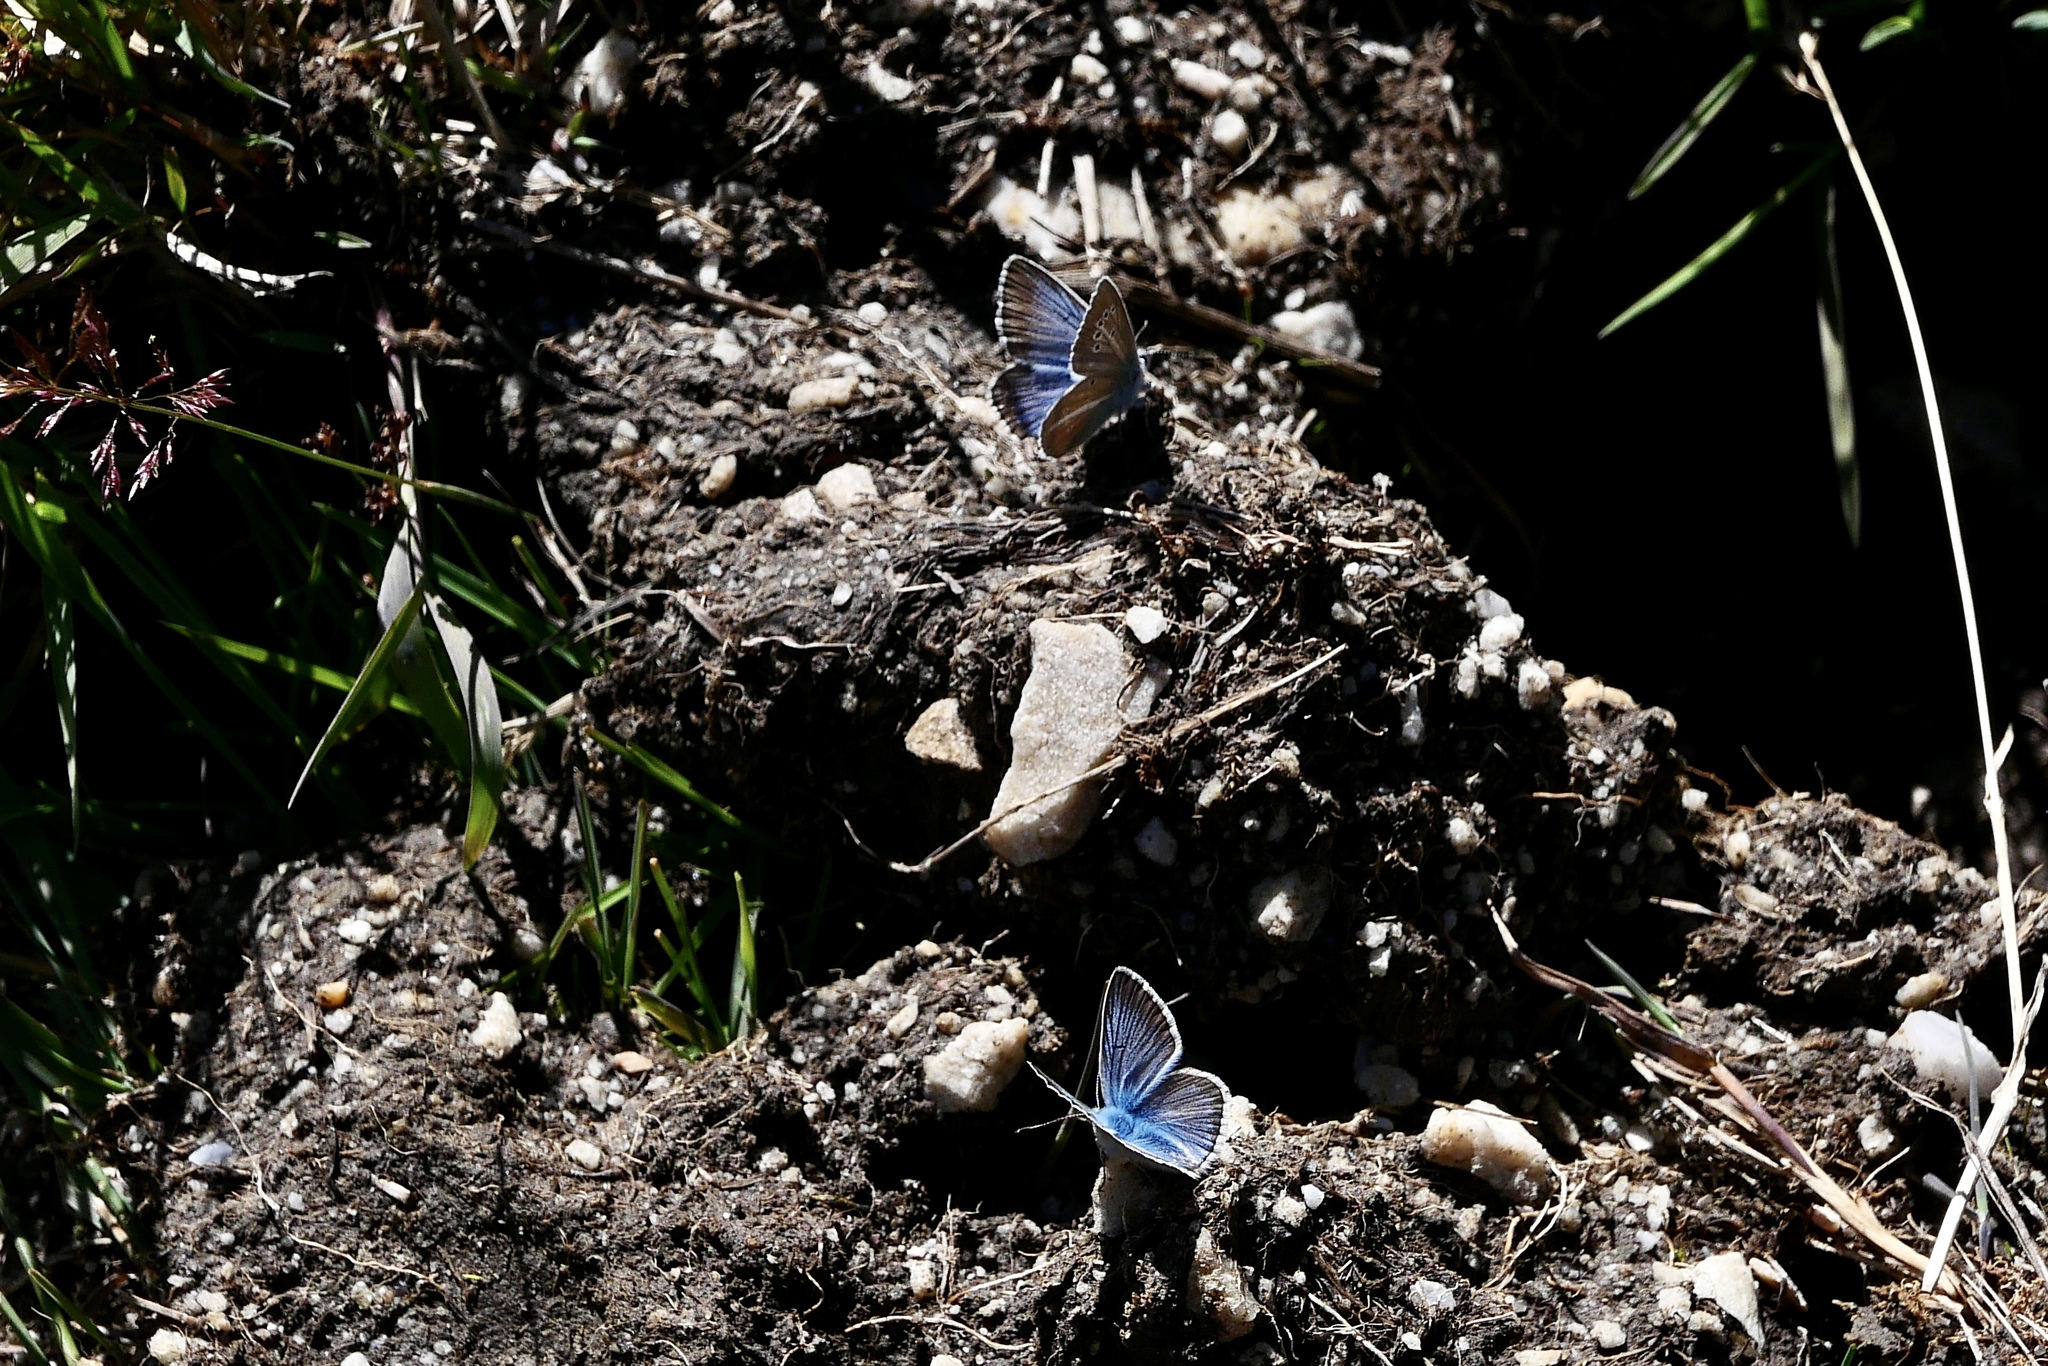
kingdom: Animalia
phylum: Arthropoda
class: Insecta
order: Lepidoptera
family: Lycaenidae
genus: Agrodiaetus
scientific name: Agrodiaetus damon
